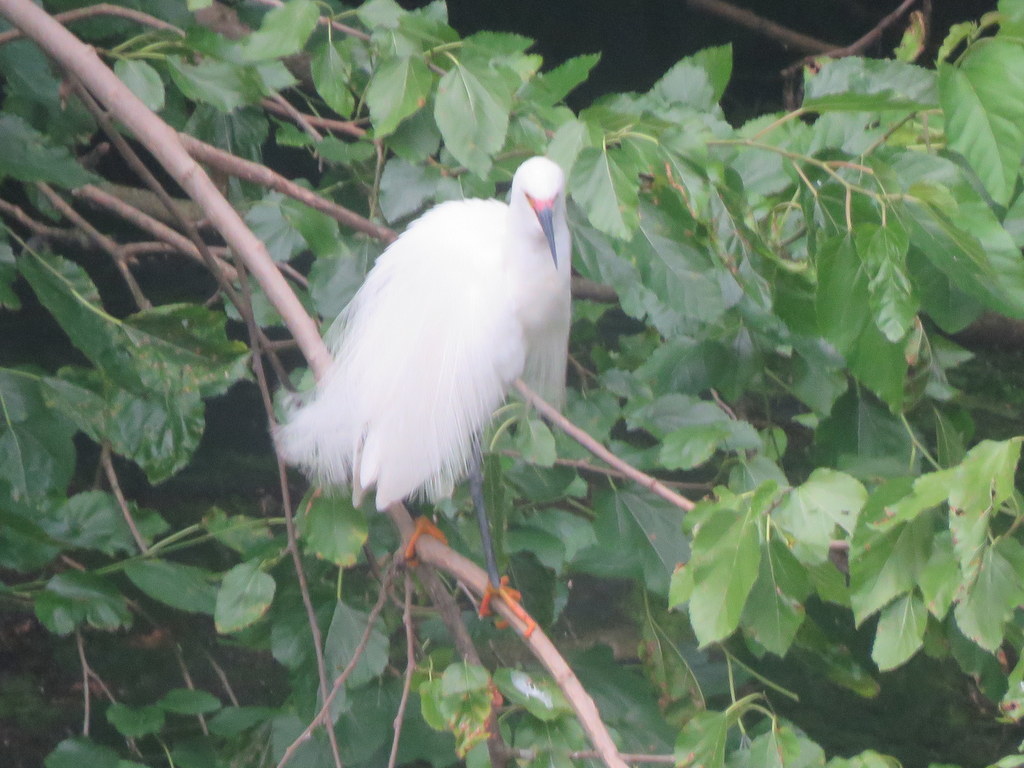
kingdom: Animalia
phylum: Chordata
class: Aves
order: Pelecaniformes
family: Ardeidae
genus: Egretta
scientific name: Egretta thula
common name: Snowy egret
